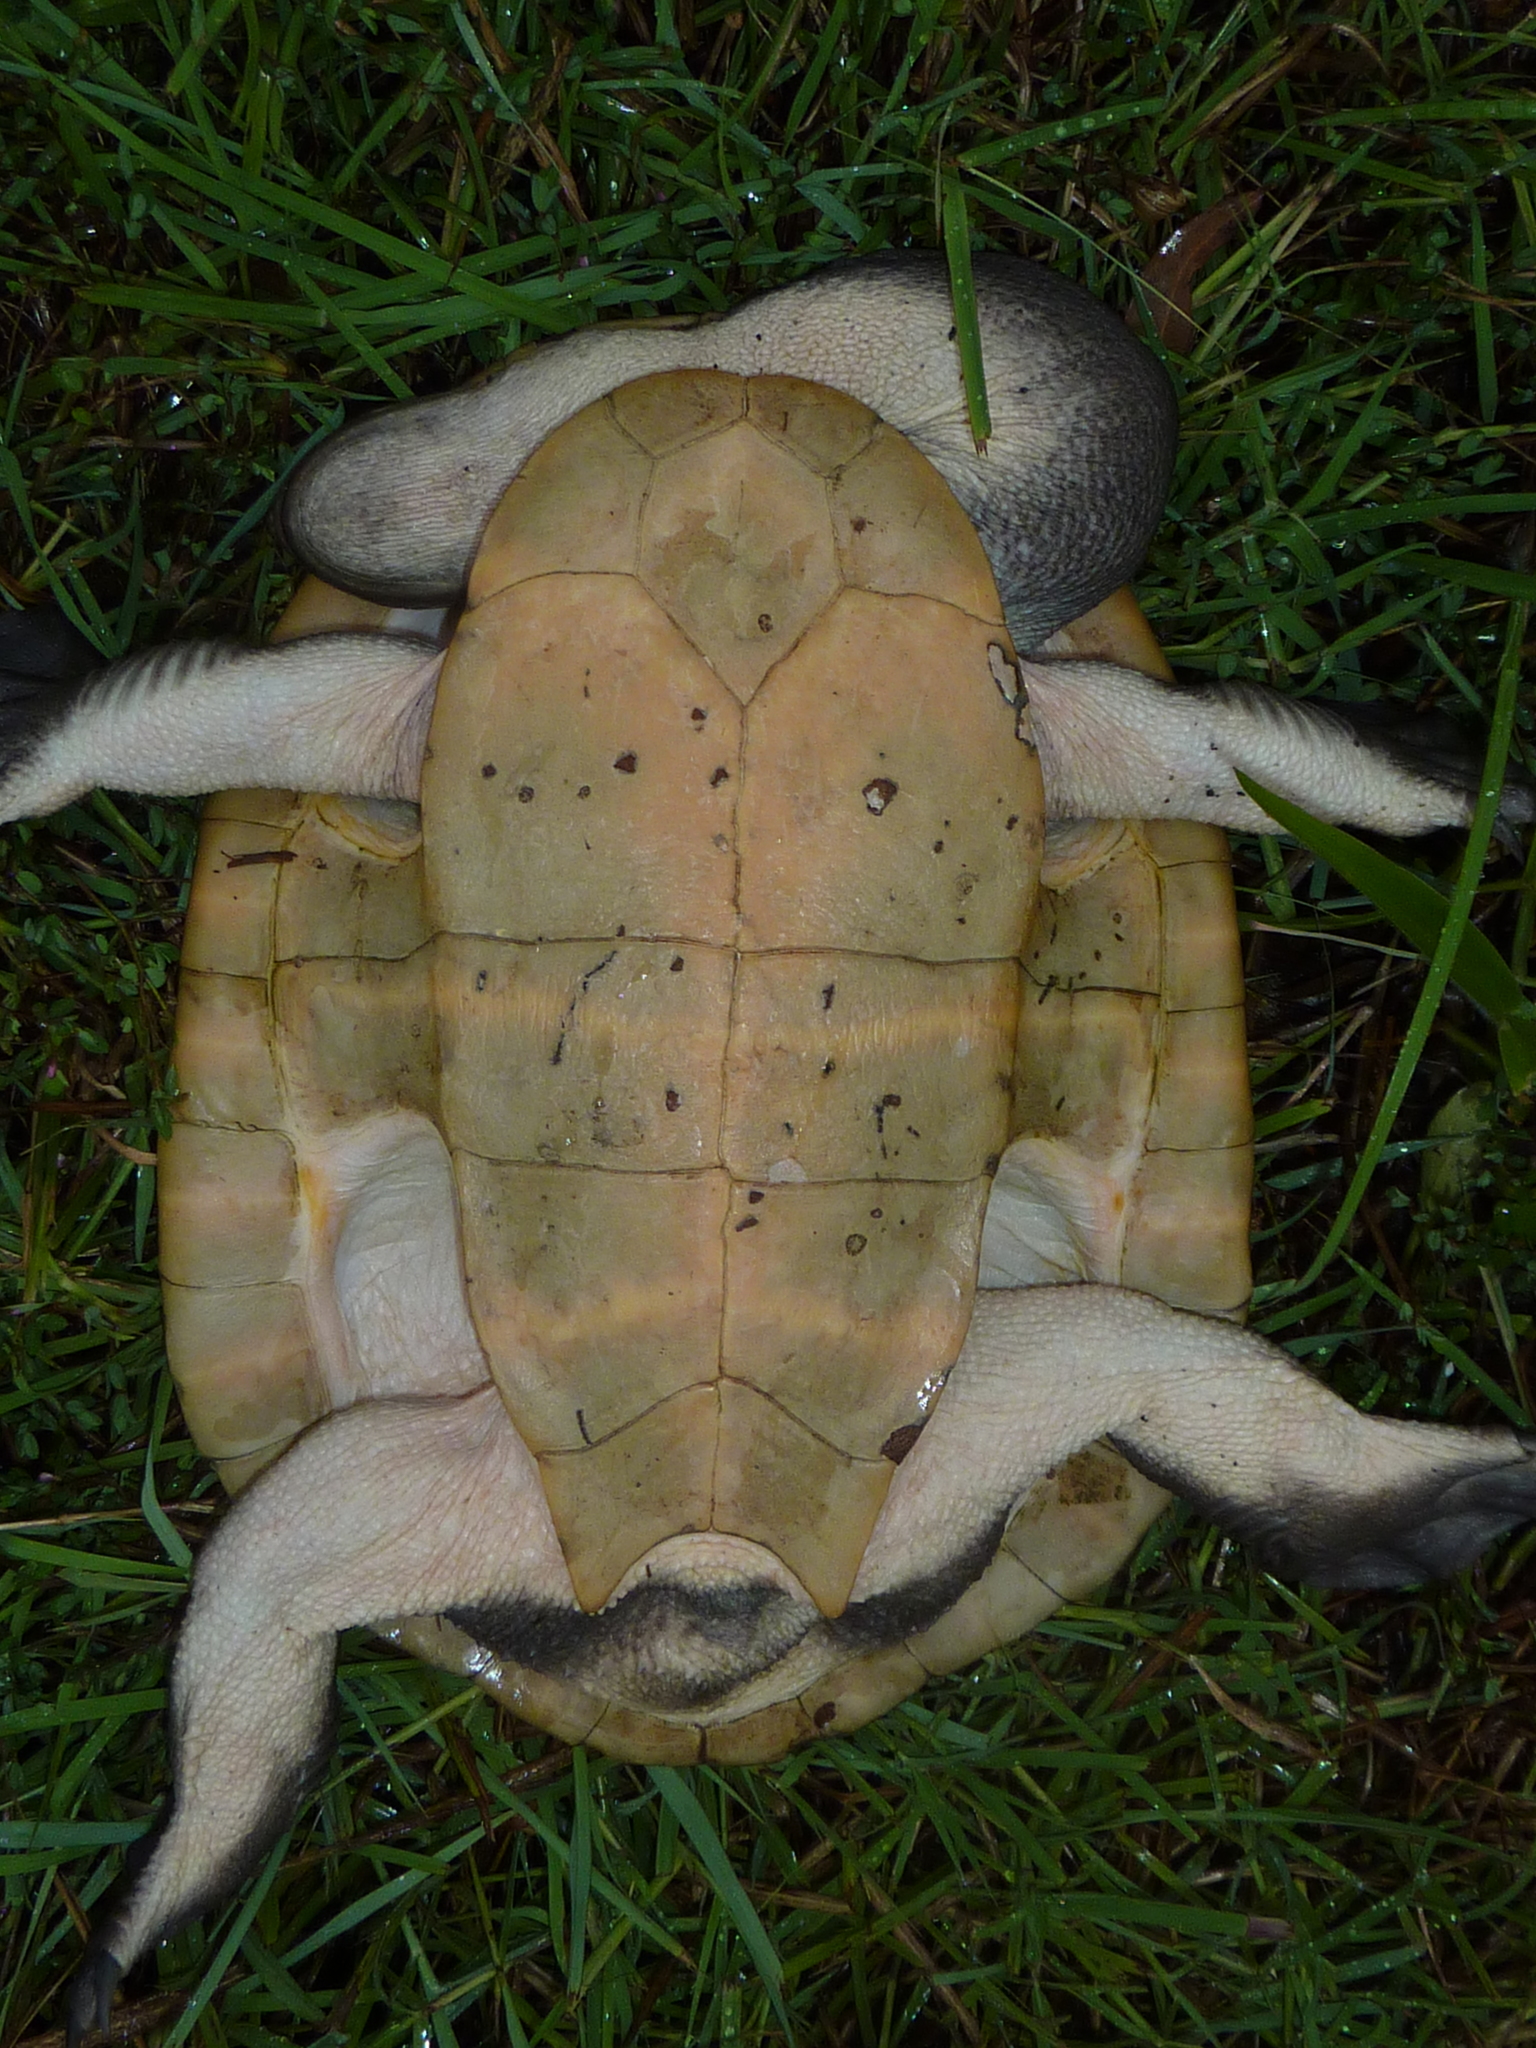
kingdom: Animalia
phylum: Chordata
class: Testudines
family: Chelidae
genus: Chelodina
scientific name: Chelodina expansa
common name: Giant snakeneck turtle
